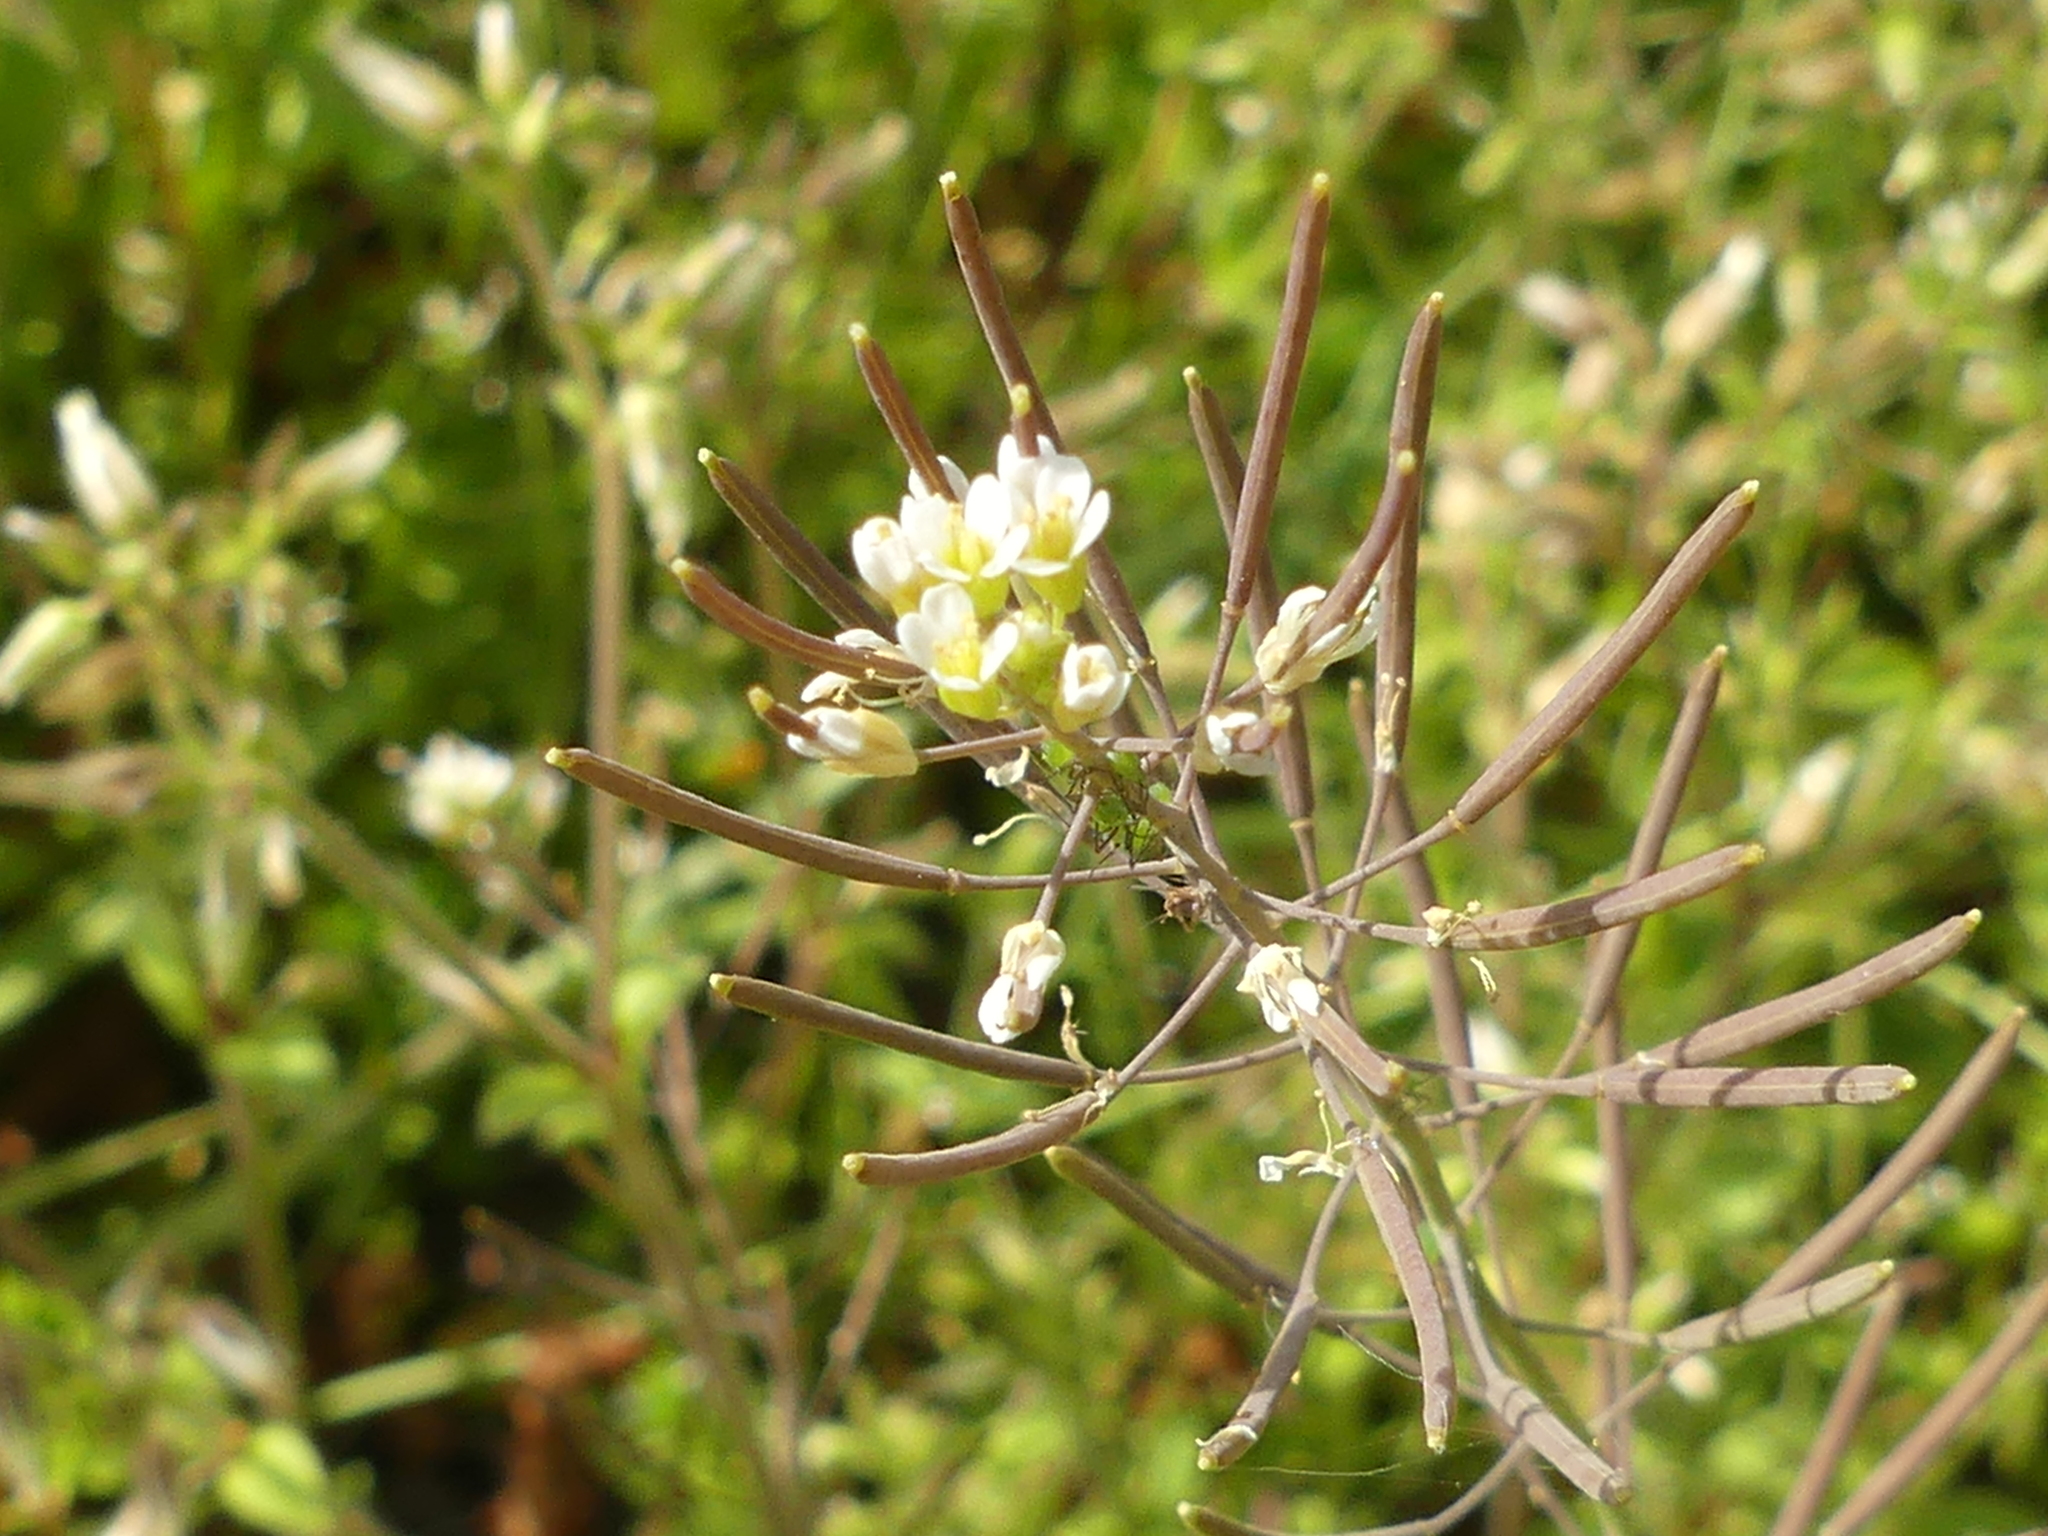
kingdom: Plantae
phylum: Tracheophyta
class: Magnoliopsida
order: Brassicales
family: Brassicaceae
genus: Arabidopsis
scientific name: Arabidopsis thaliana
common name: Thale cress
